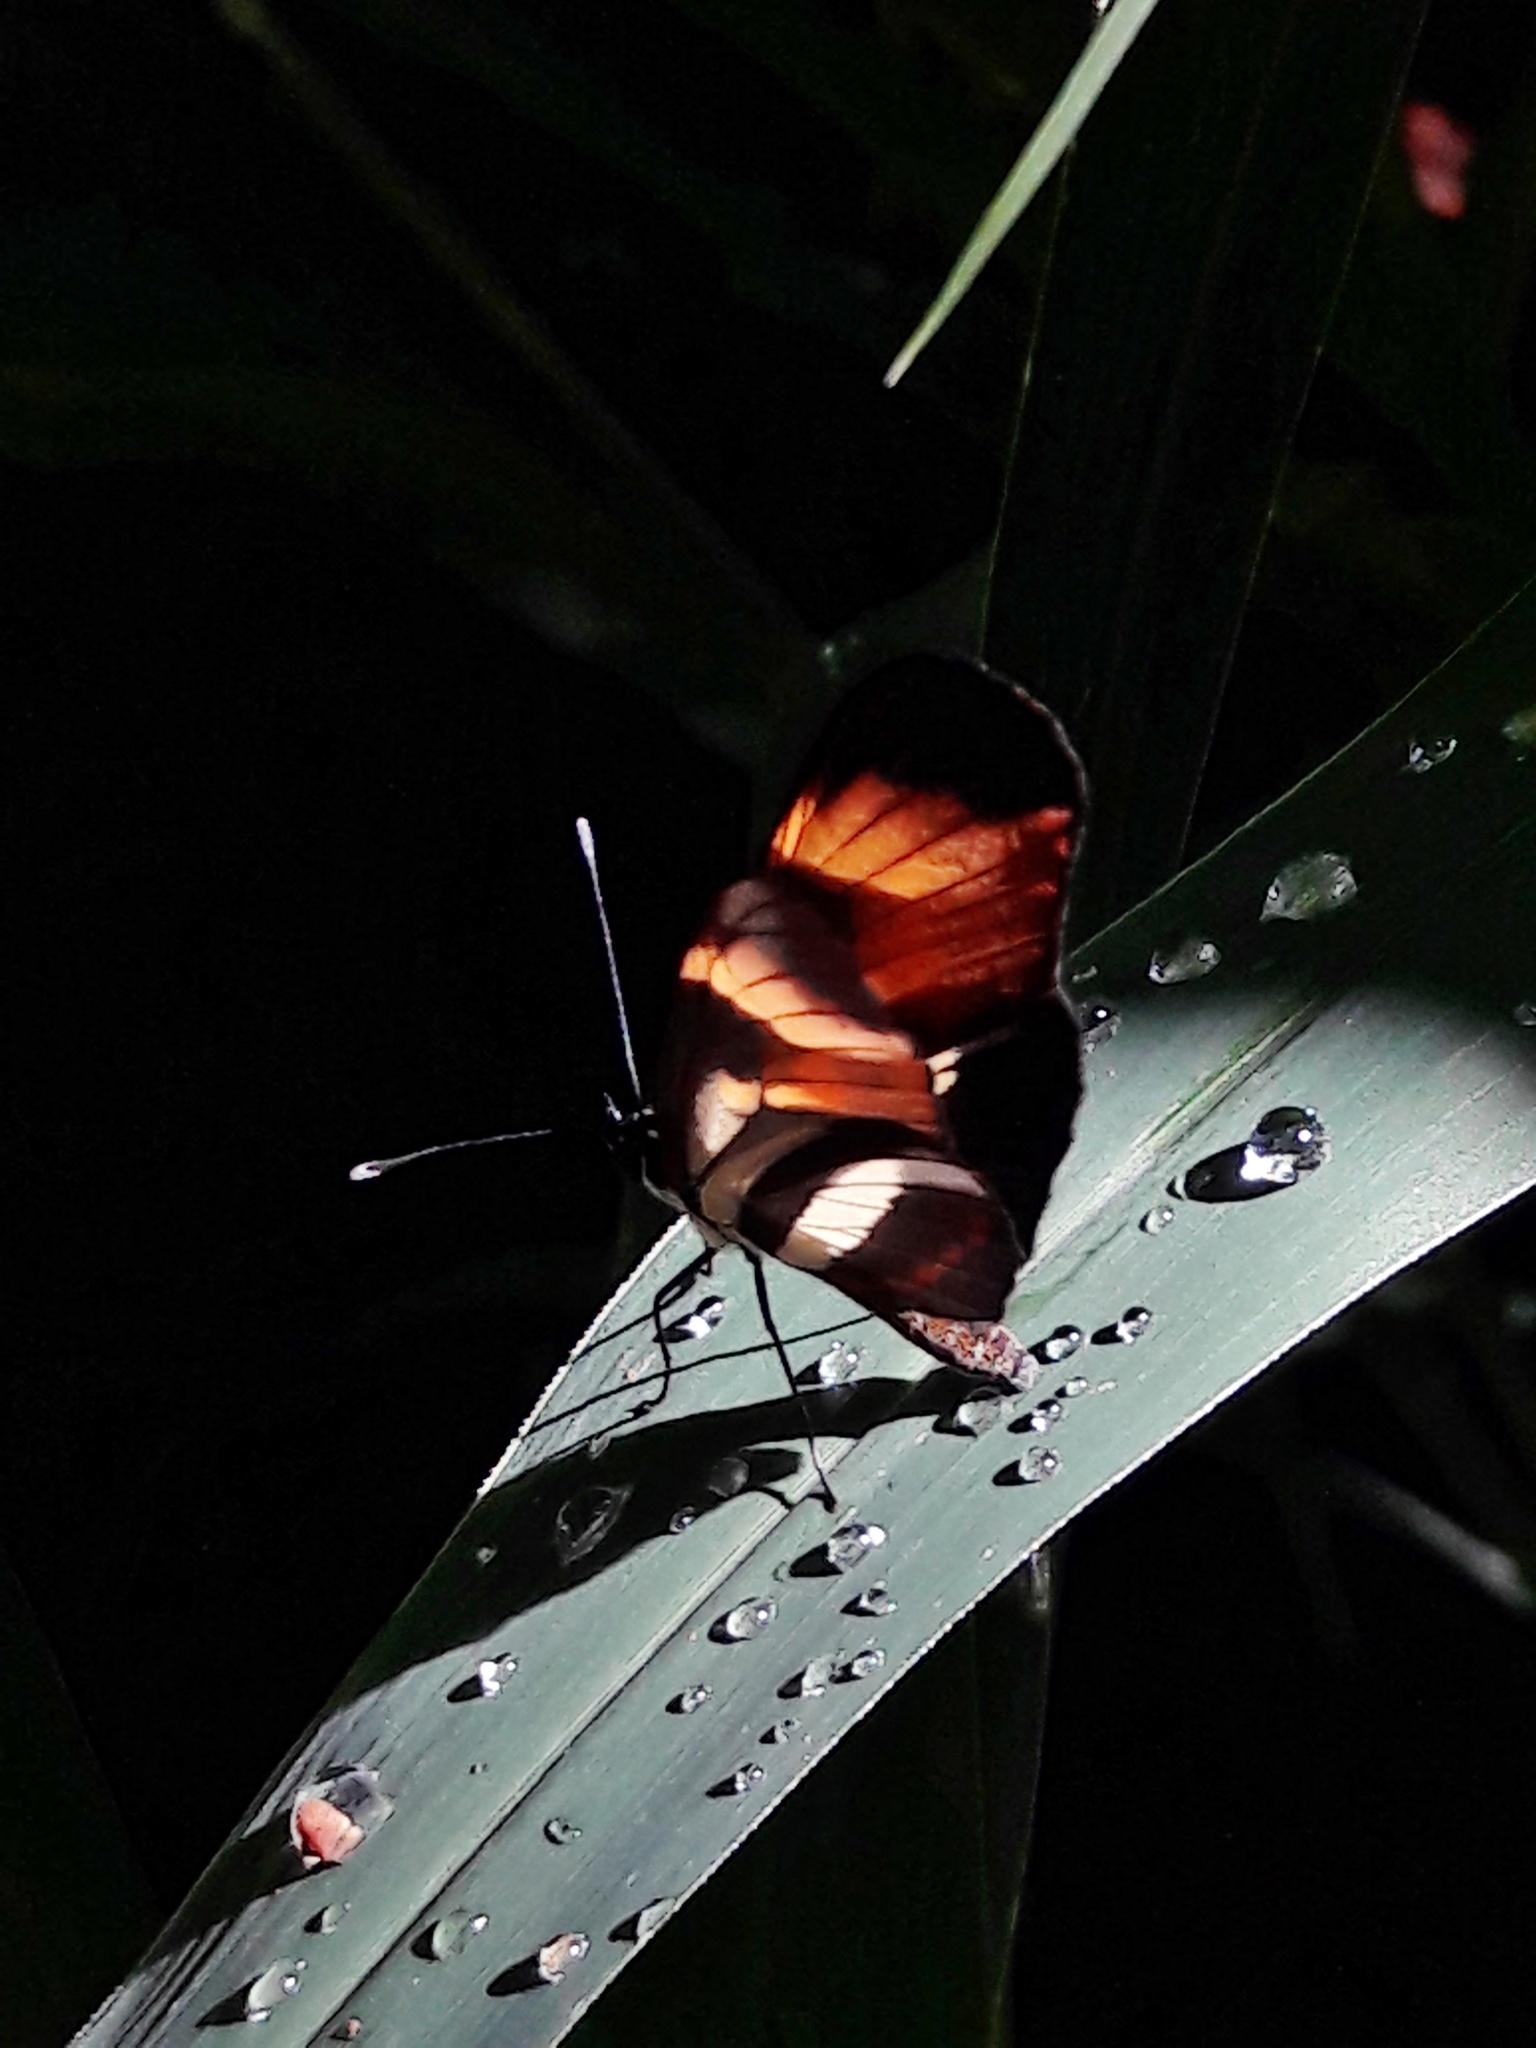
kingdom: Animalia
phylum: Arthropoda
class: Insecta
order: Lepidoptera
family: Nymphalidae
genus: Eresia
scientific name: Eresia lansdorfi
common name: Lansdorf's crescent
